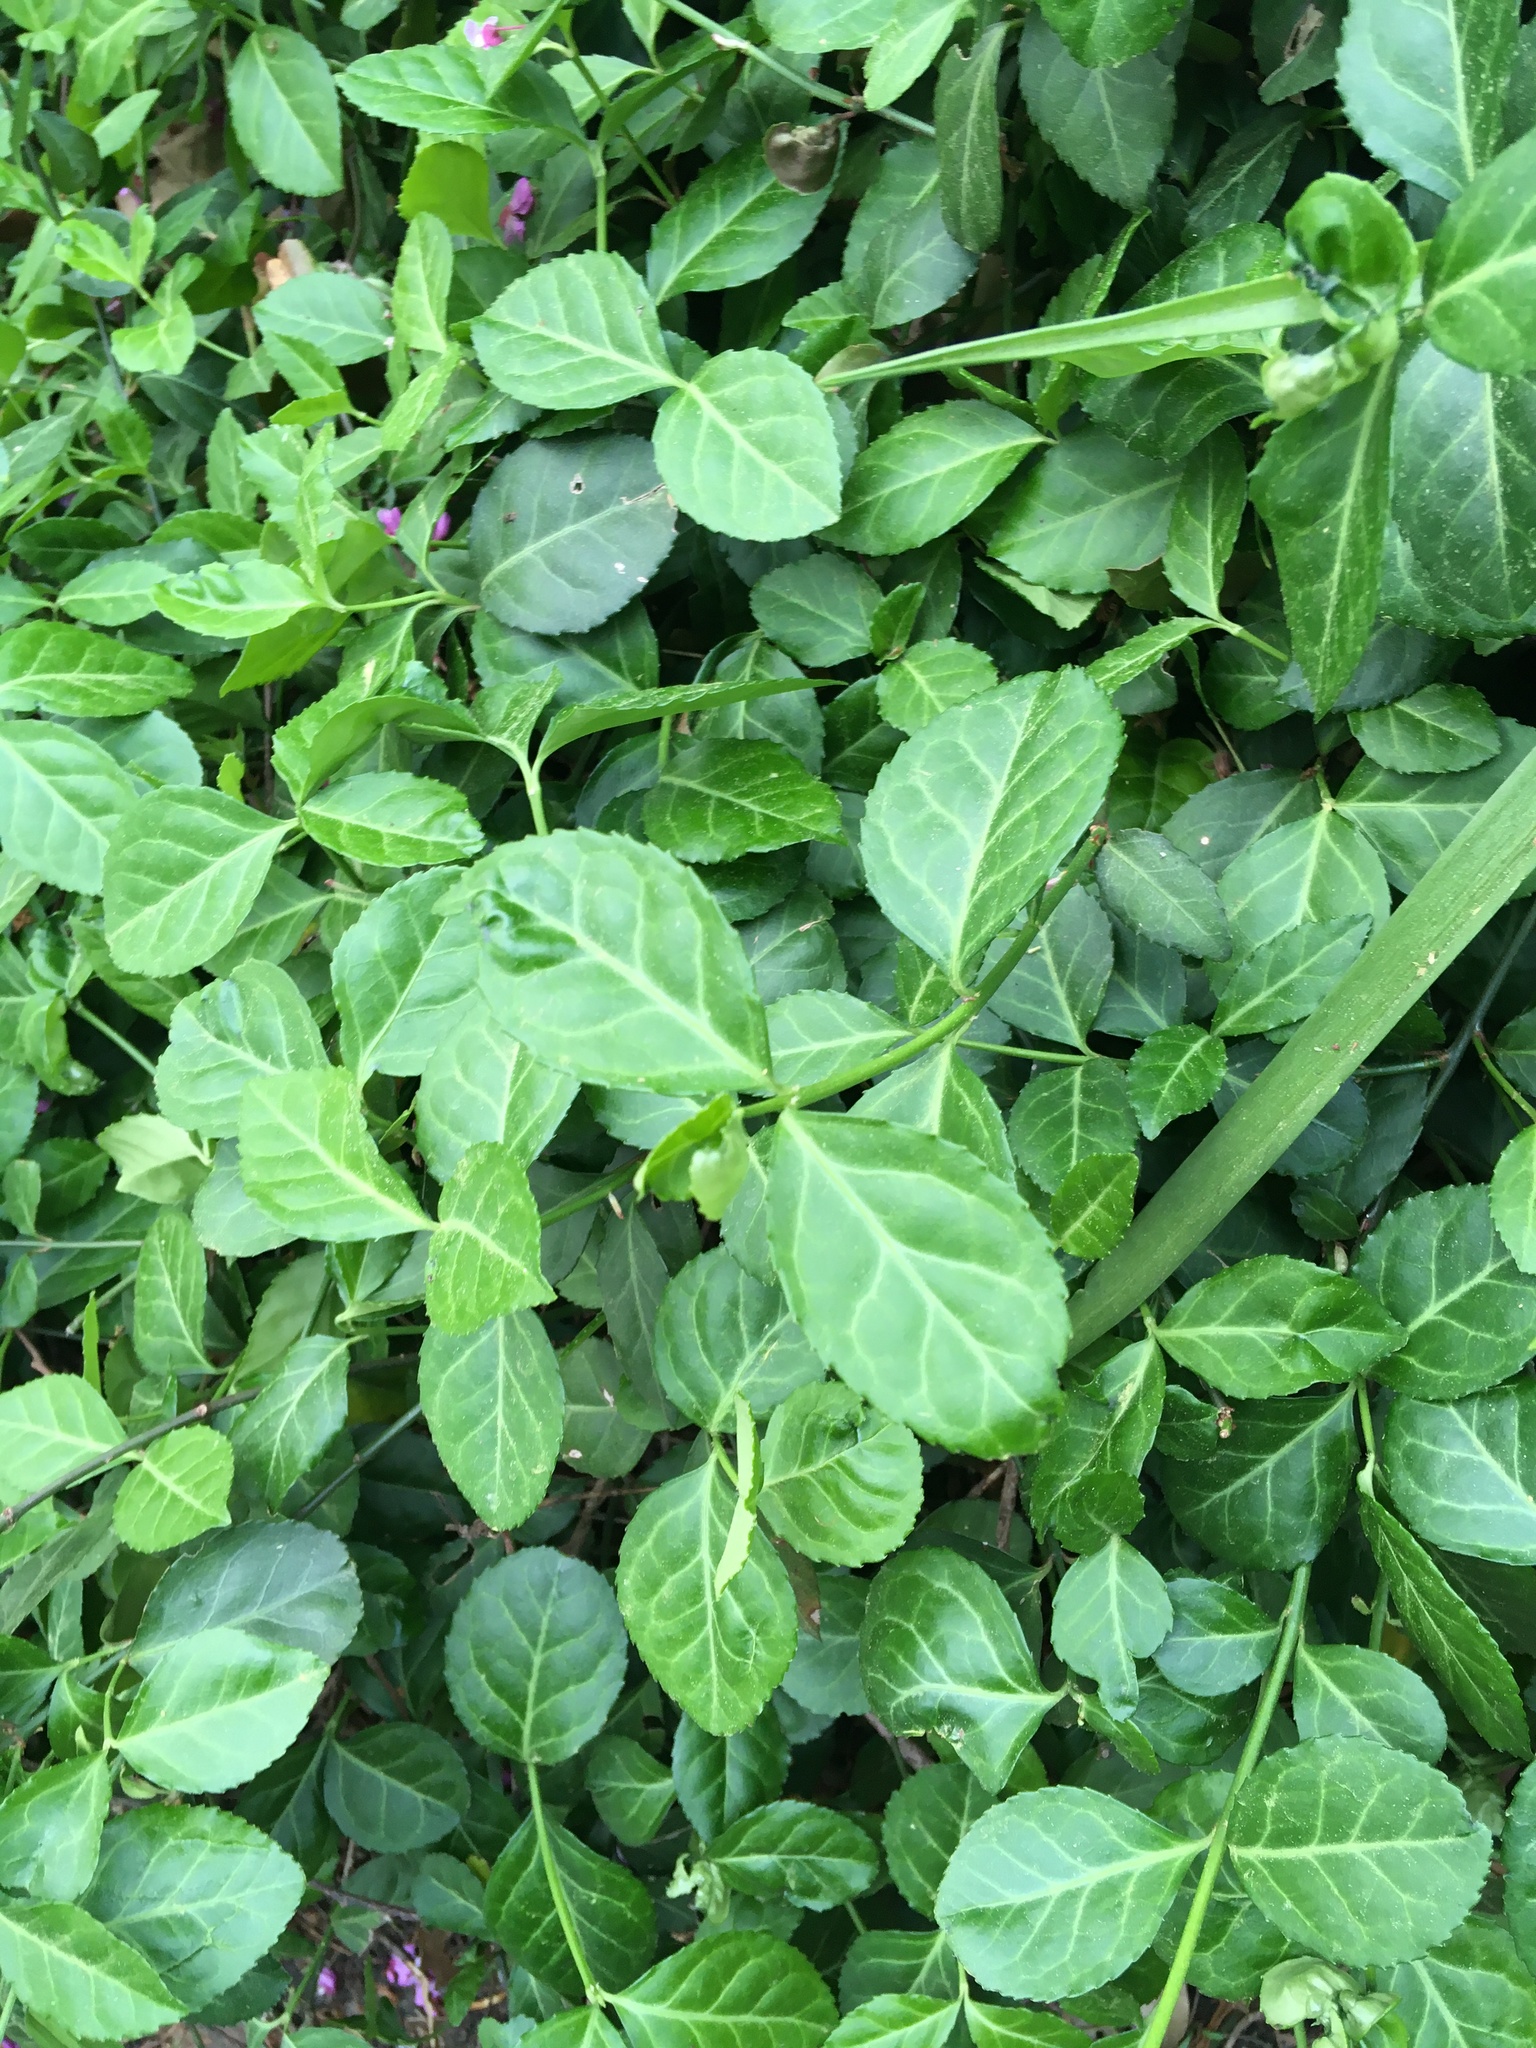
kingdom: Plantae
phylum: Tracheophyta
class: Magnoliopsida
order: Celastrales
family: Celastraceae
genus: Euonymus
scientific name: Euonymus fortunei
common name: Climbing euonymus
